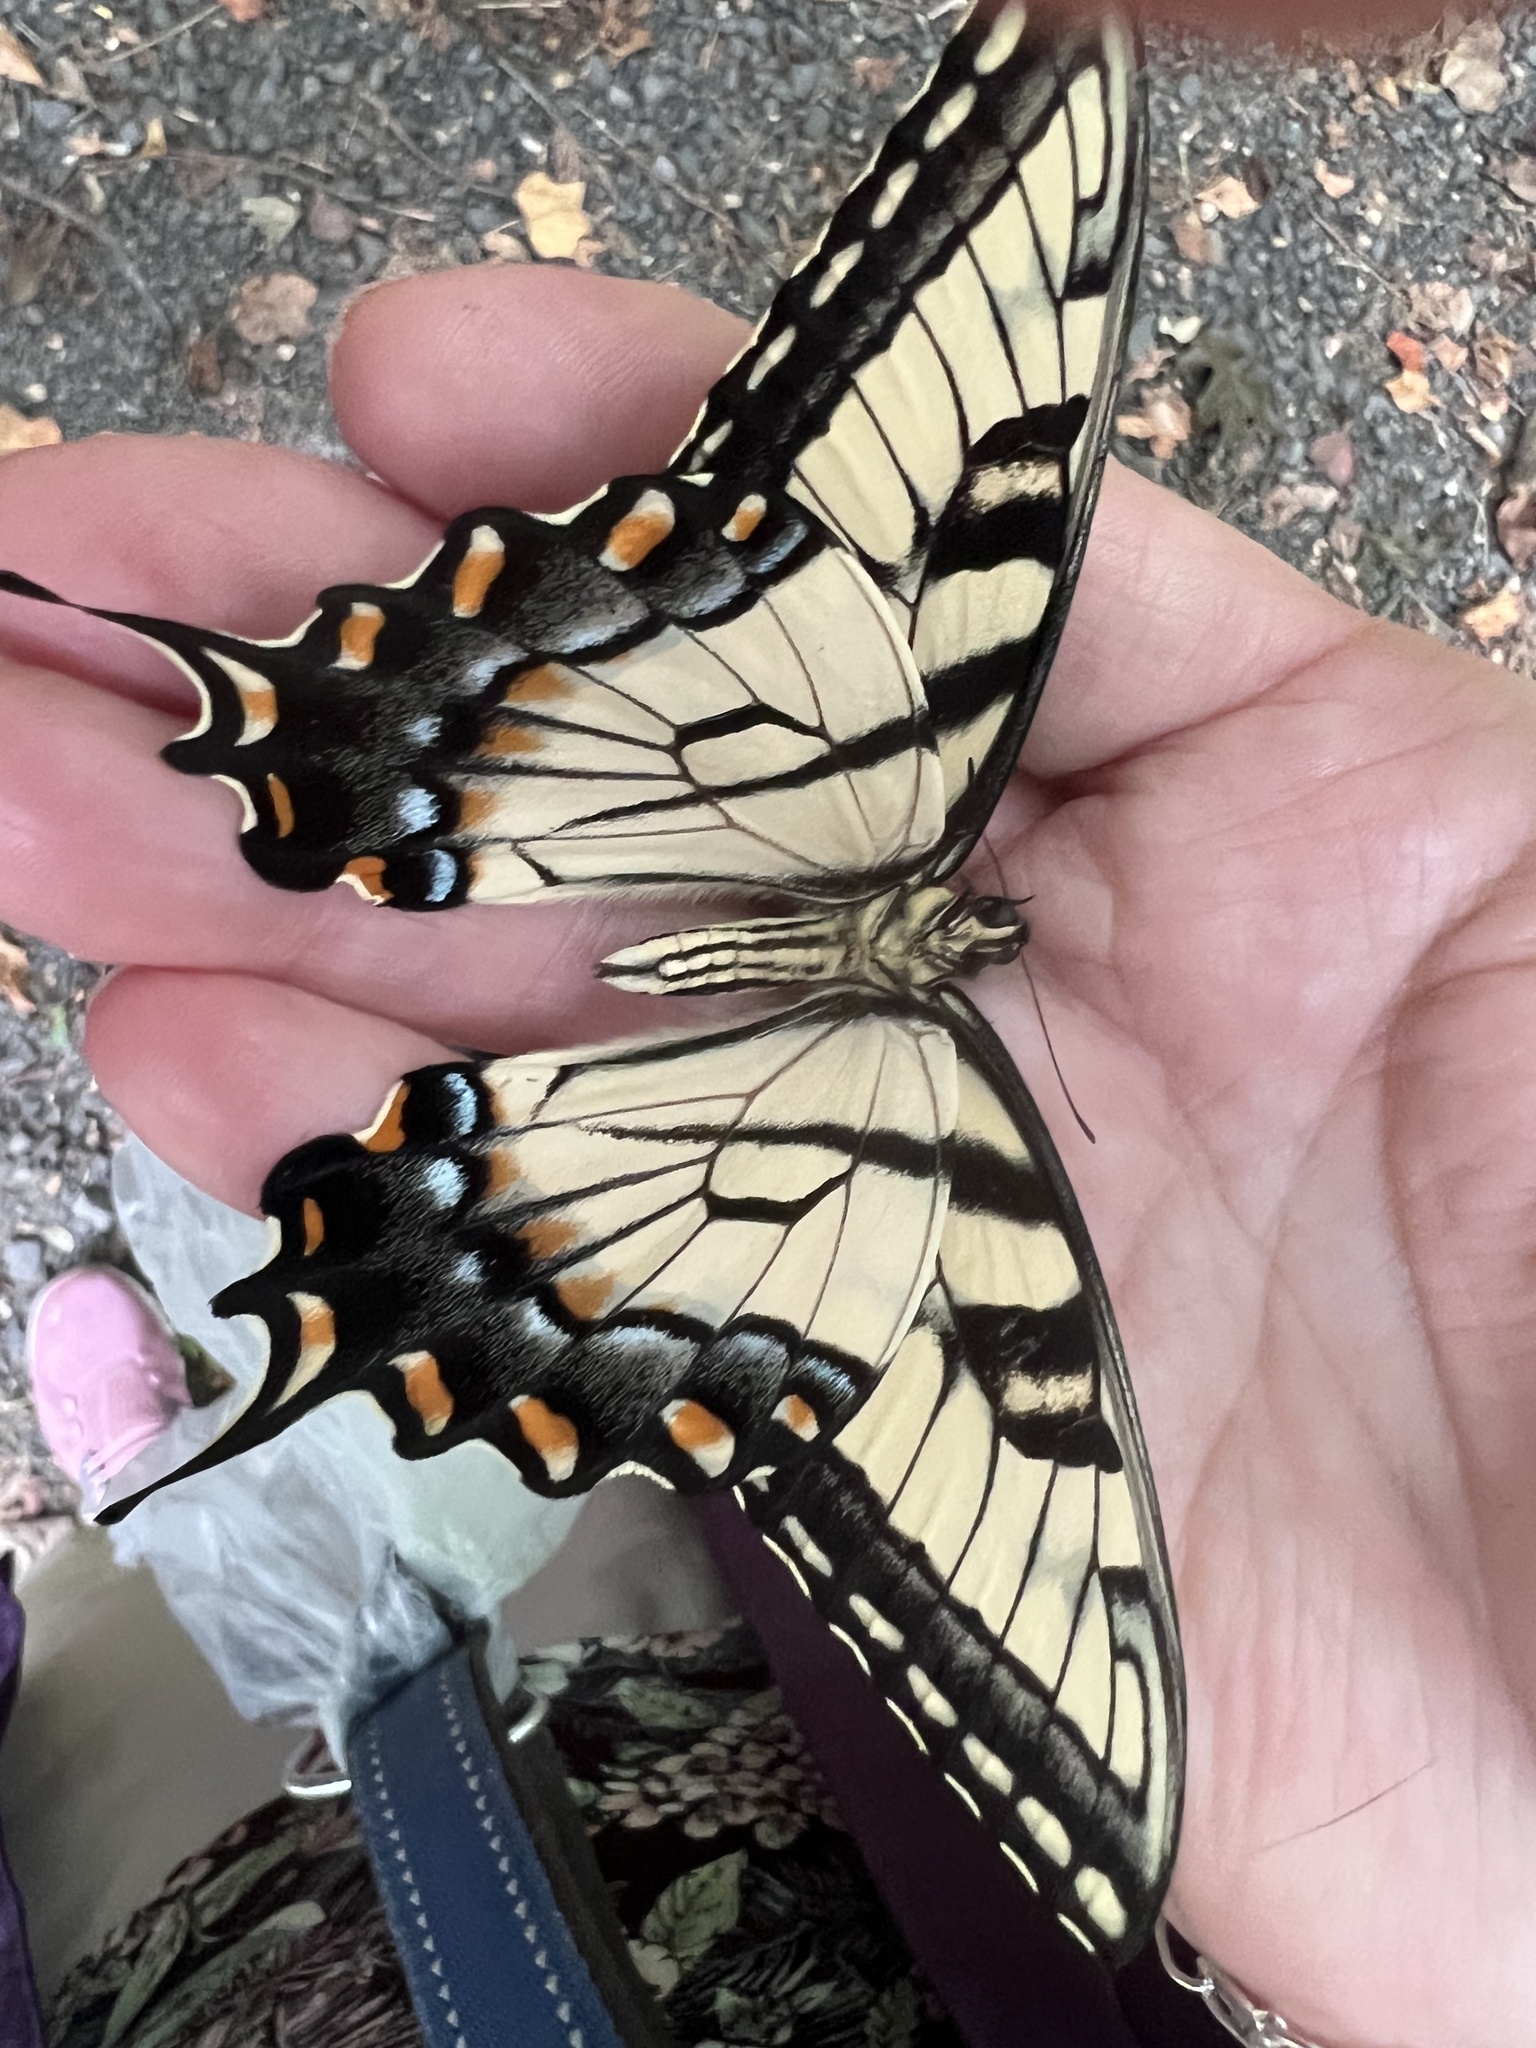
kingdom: Animalia
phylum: Arthropoda
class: Insecta
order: Lepidoptera
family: Papilionidae
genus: Papilio
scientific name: Papilio glaucus
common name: Tiger swallowtail
